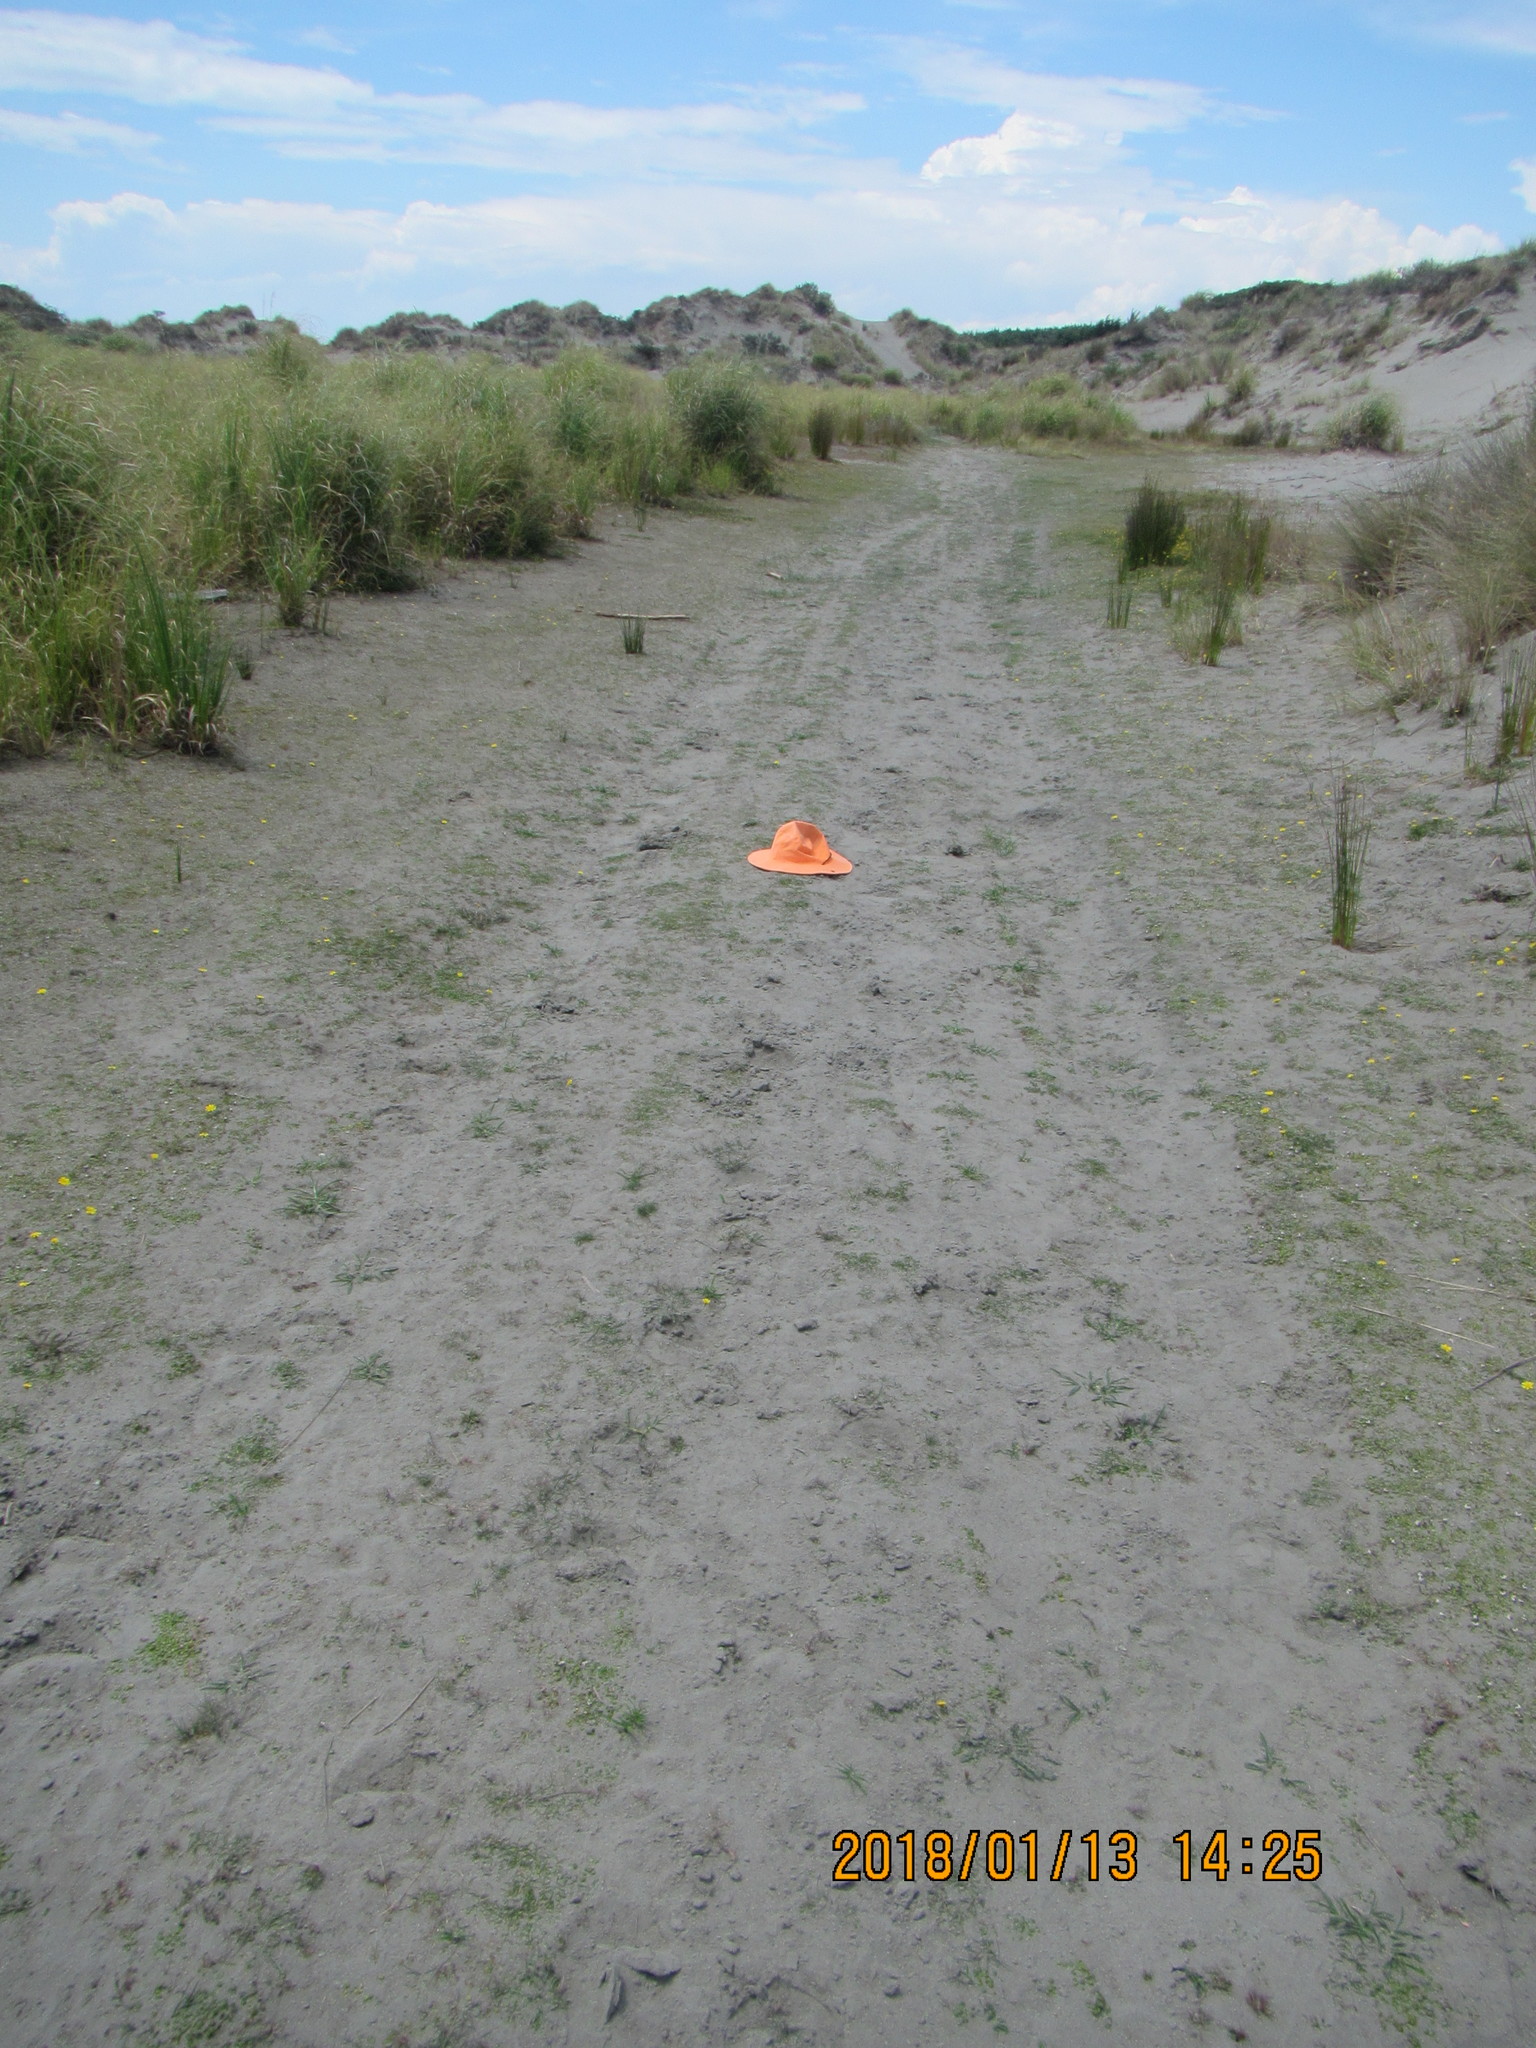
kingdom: Plantae
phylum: Tracheophyta
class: Magnoliopsida
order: Apiales
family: Apiaceae
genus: Lilaeopsis
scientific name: Lilaeopsis novae-zelandiae
